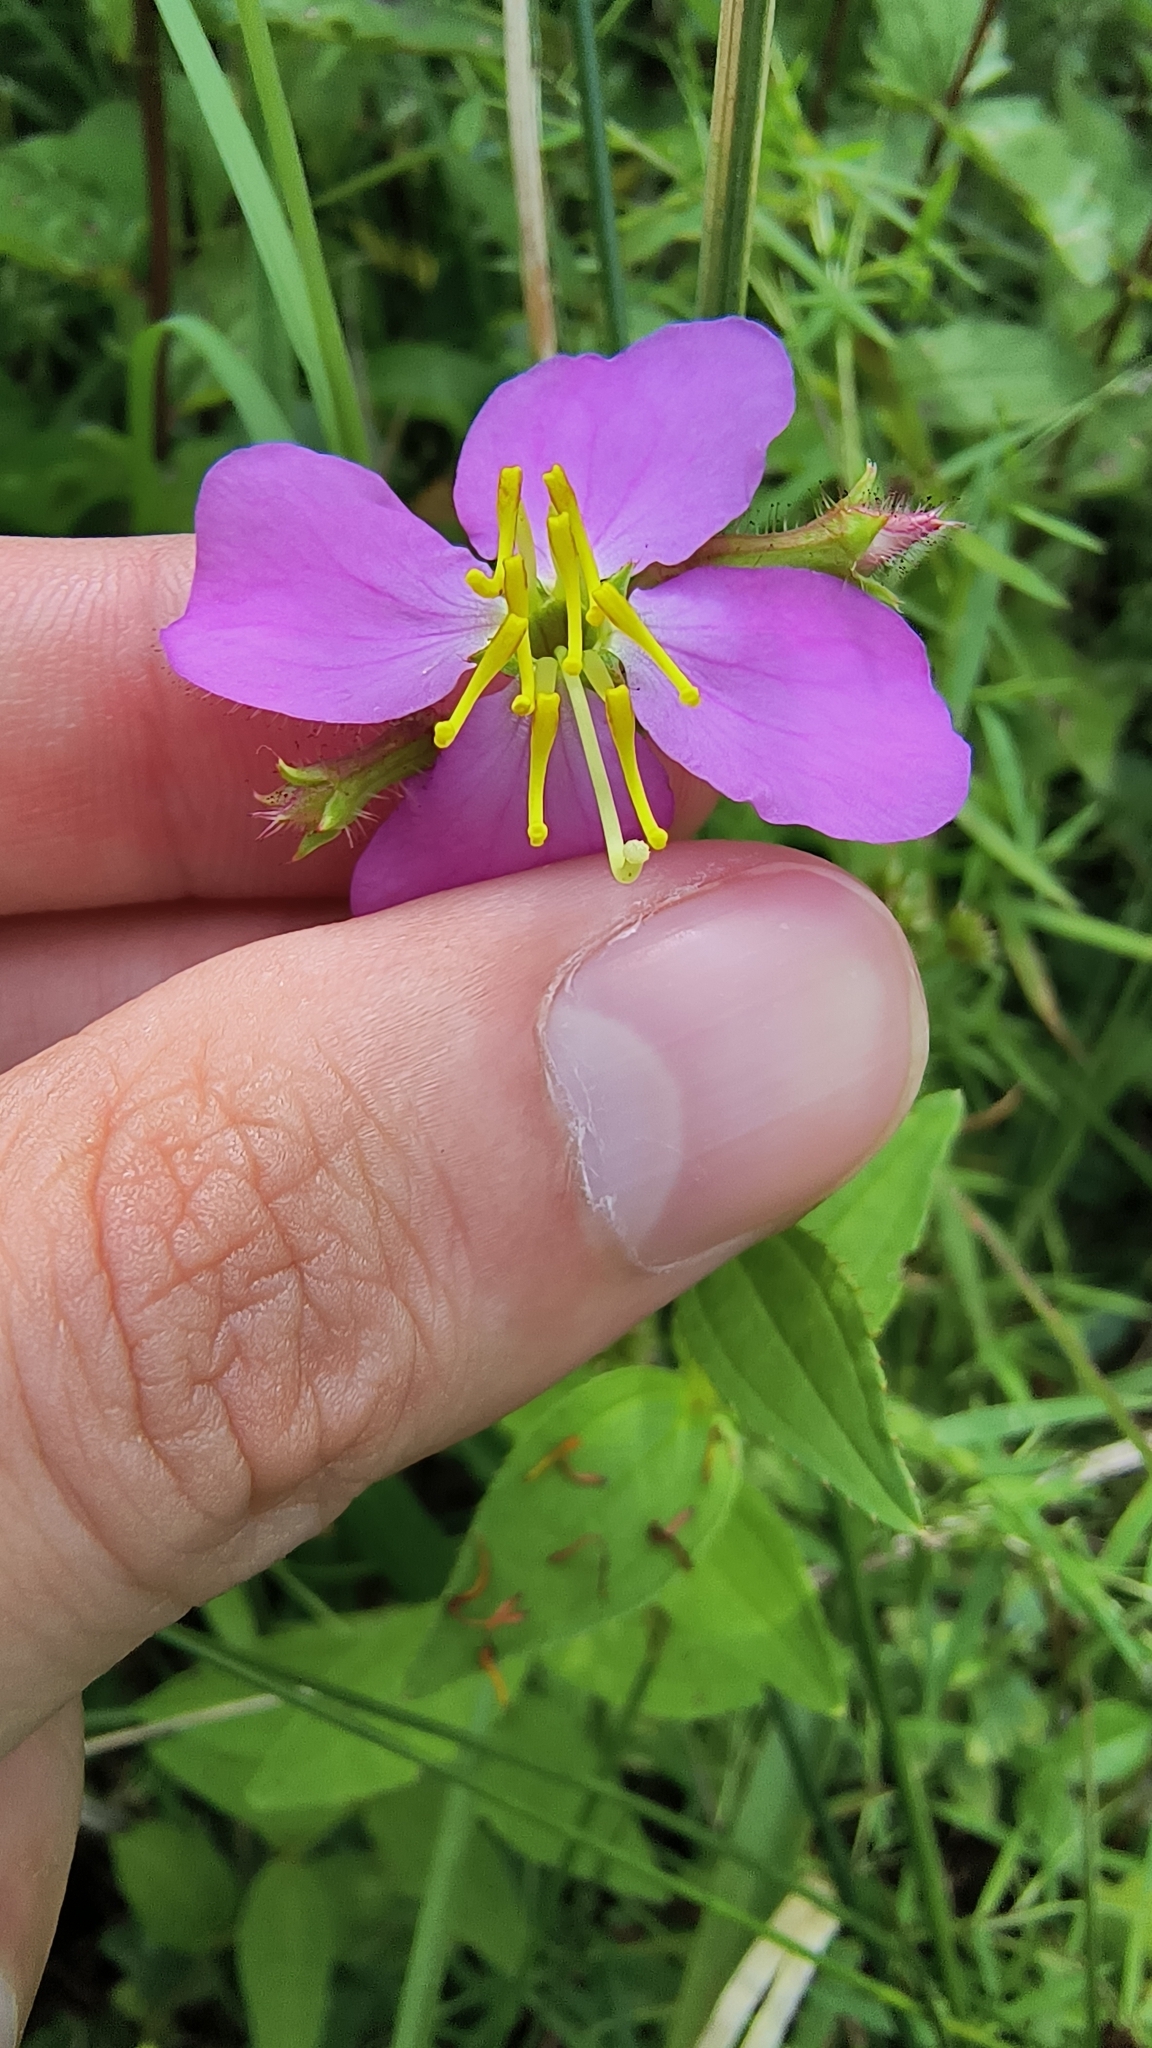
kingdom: Plantae
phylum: Tracheophyta
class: Magnoliopsida
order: Myrtales
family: Melastomataceae
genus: Rhexia
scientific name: Rhexia virginica
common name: Common meadow beauty
